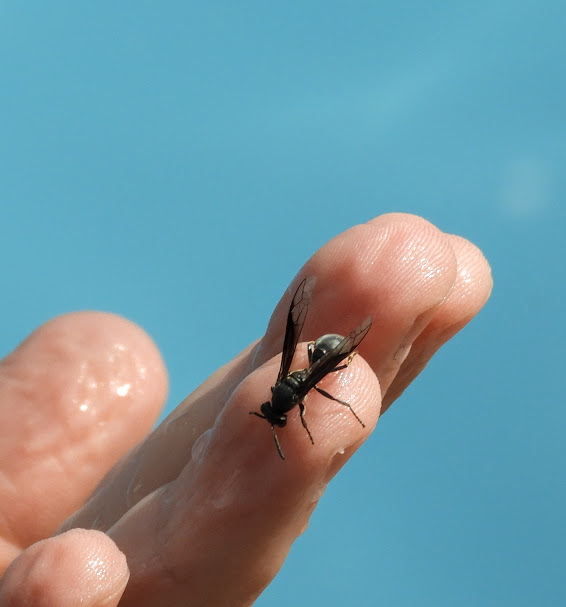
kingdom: Animalia
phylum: Arthropoda
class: Insecta
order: Hymenoptera
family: Eumenidae
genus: Polybia
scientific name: Polybia ignobilis
